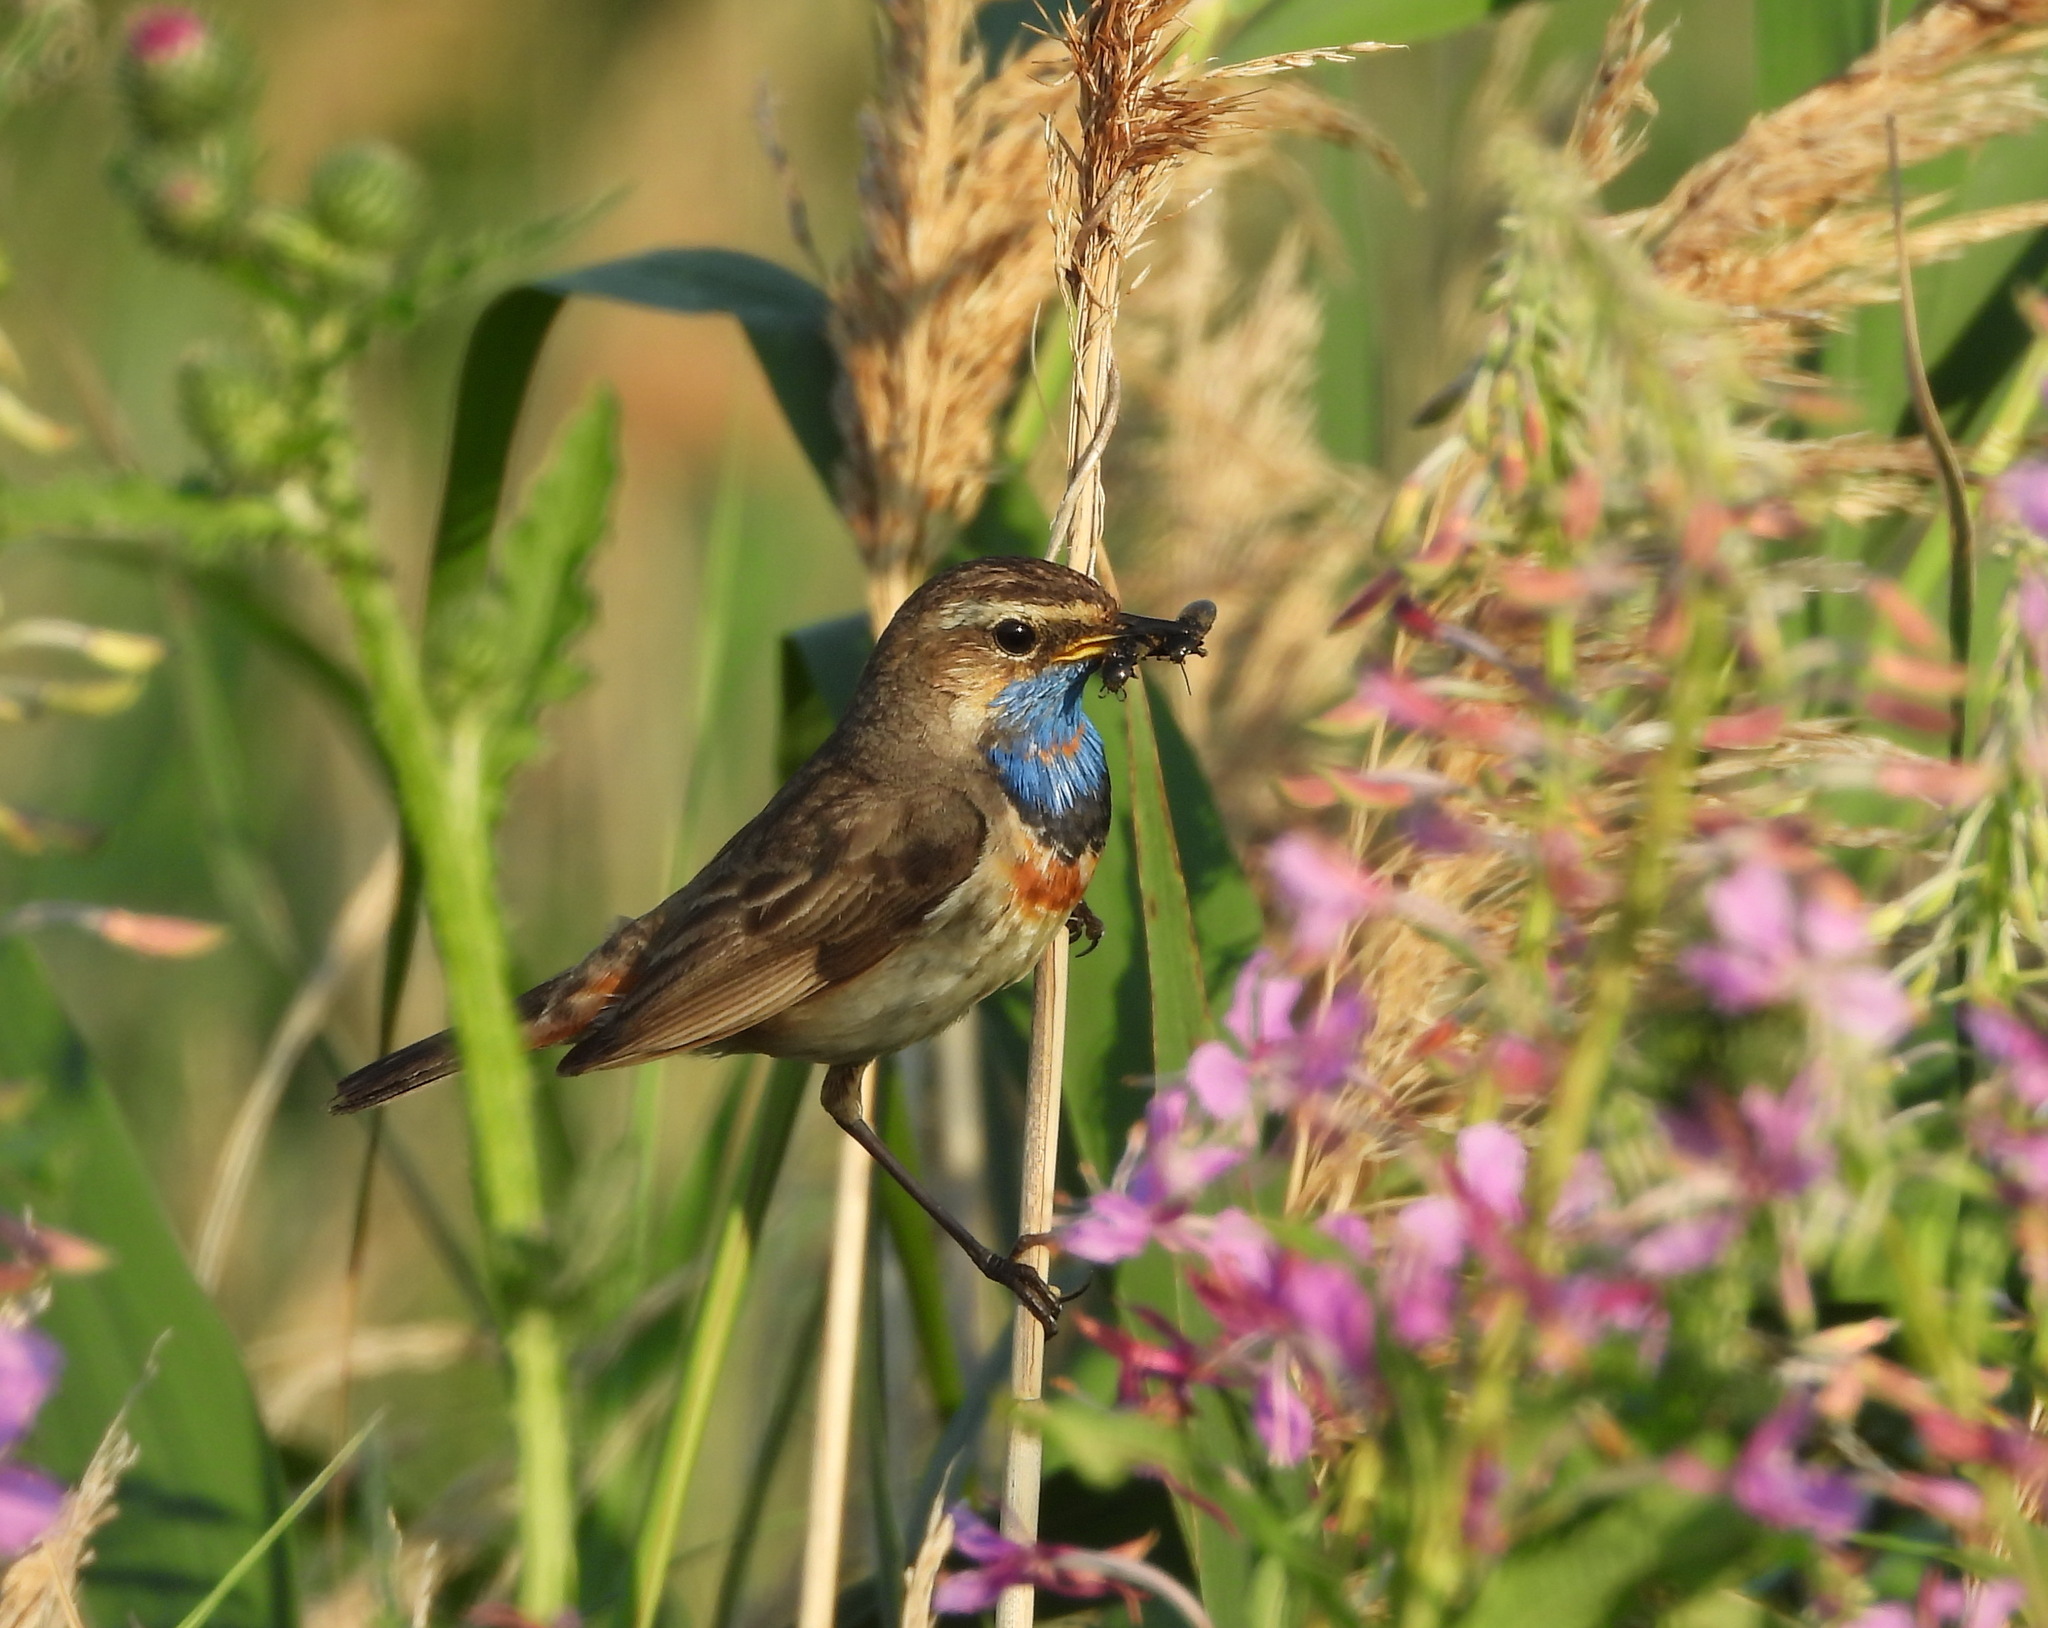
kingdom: Animalia
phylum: Chordata
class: Aves
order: Passeriformes
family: Muscicapidae
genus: Luscinia
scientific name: Luscinia svecica
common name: Bluethroat
